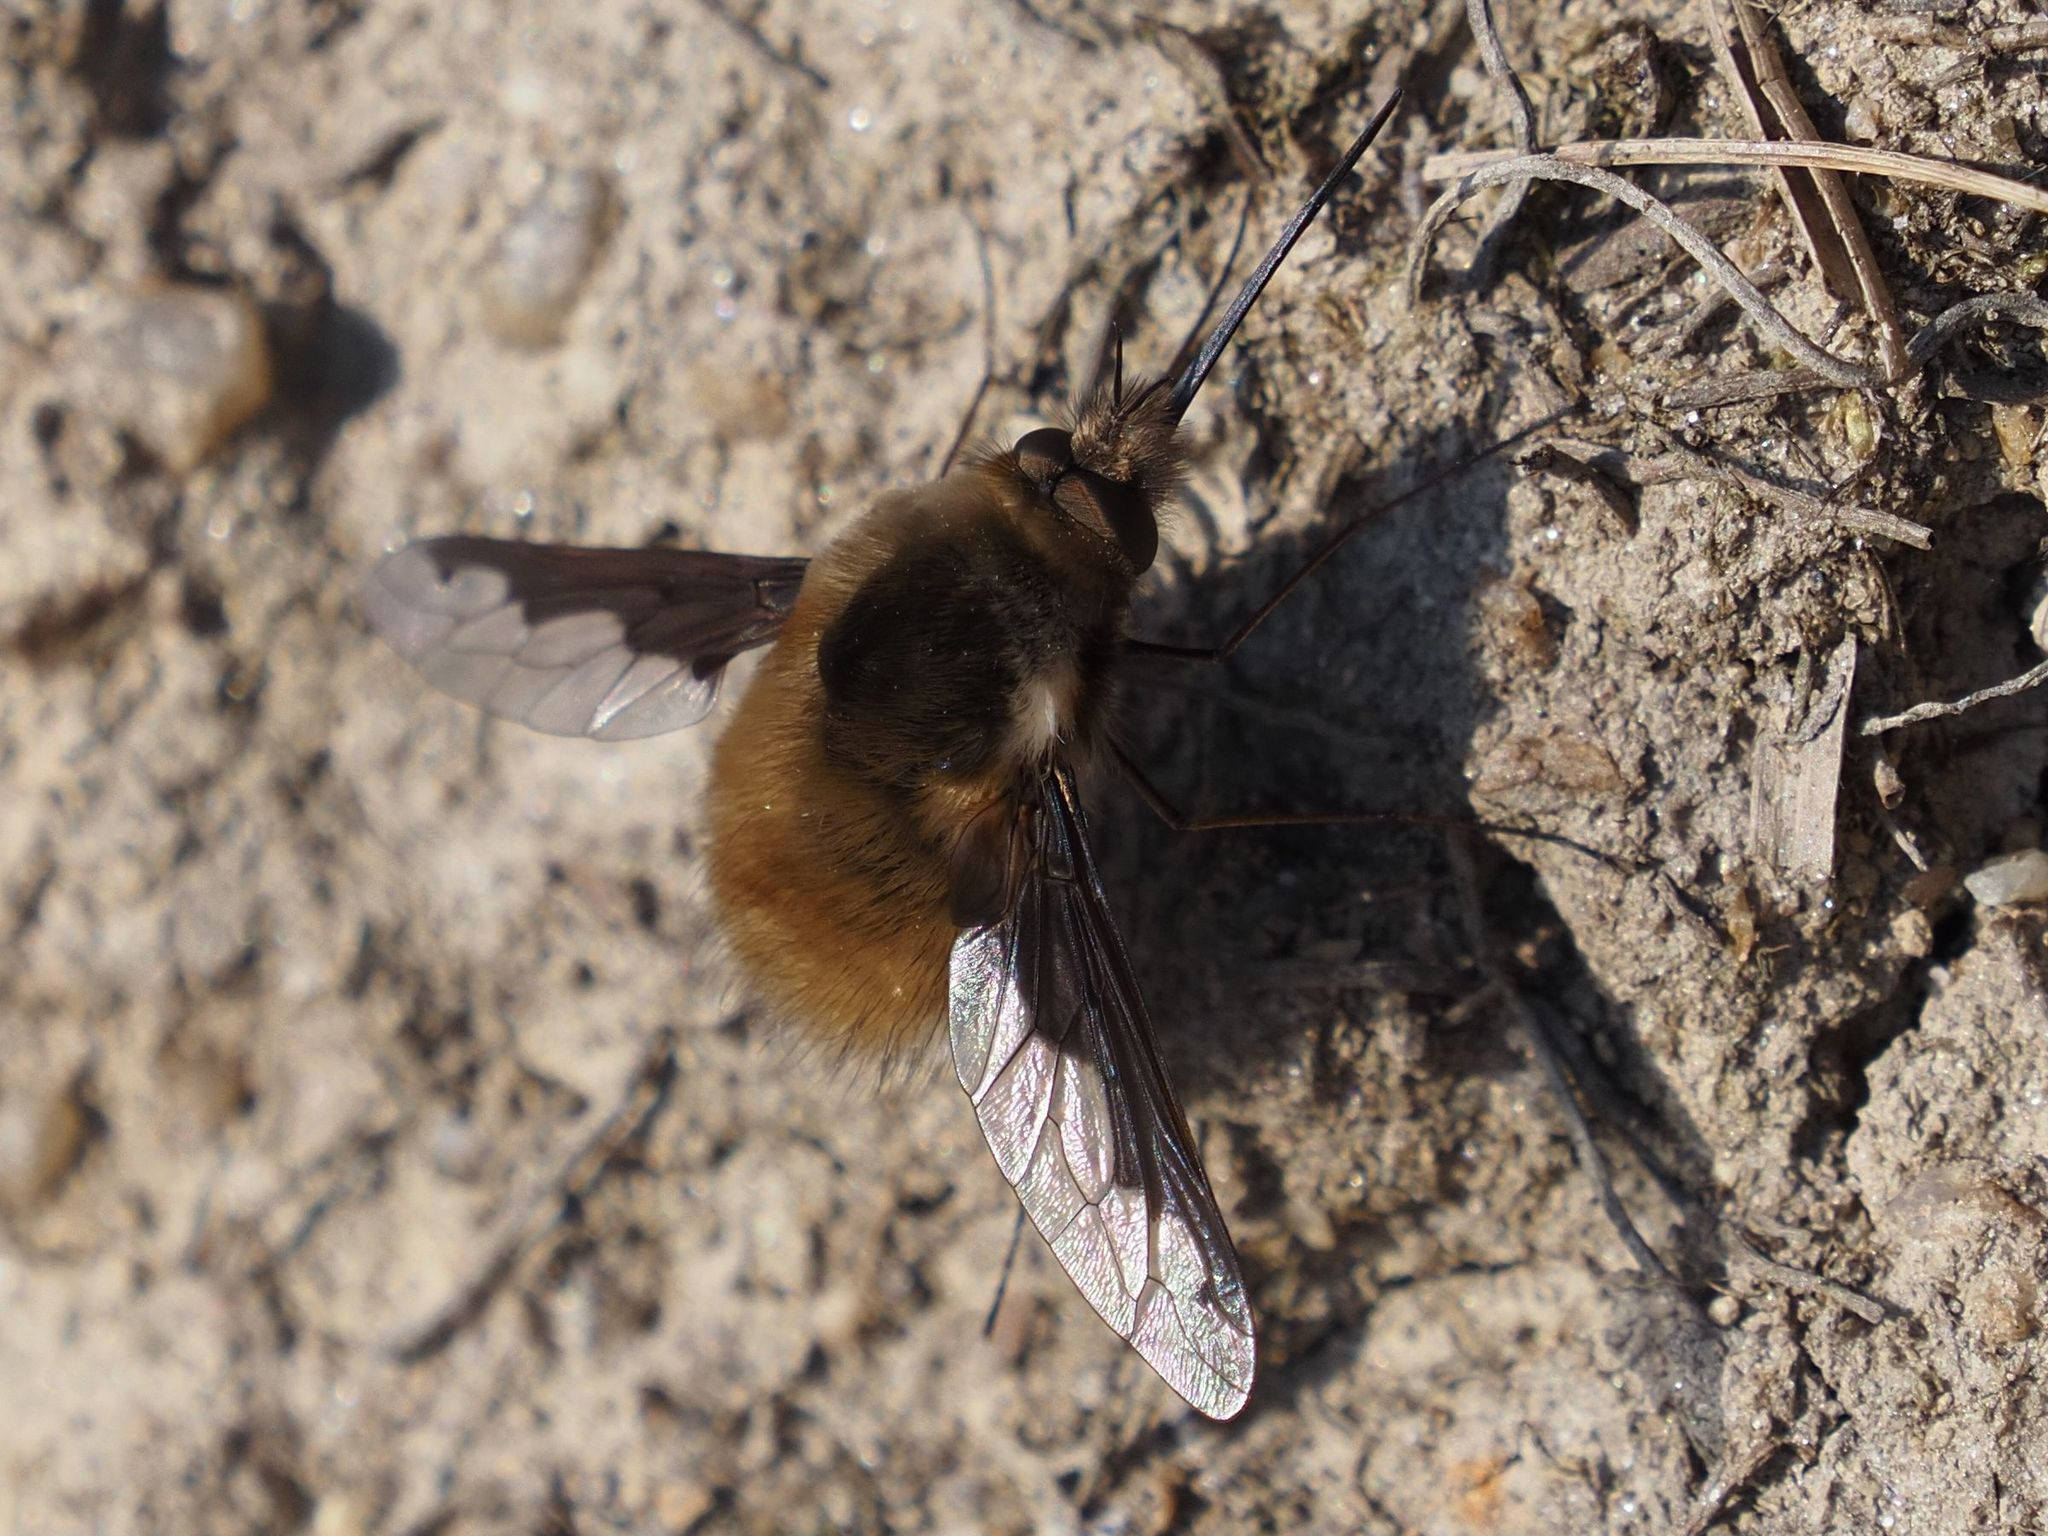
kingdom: Animalia
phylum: Arthropoda
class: Insecta
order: Diptera
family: Bombyliidae
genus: Bombylius
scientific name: Bombylius major
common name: Bee fly
